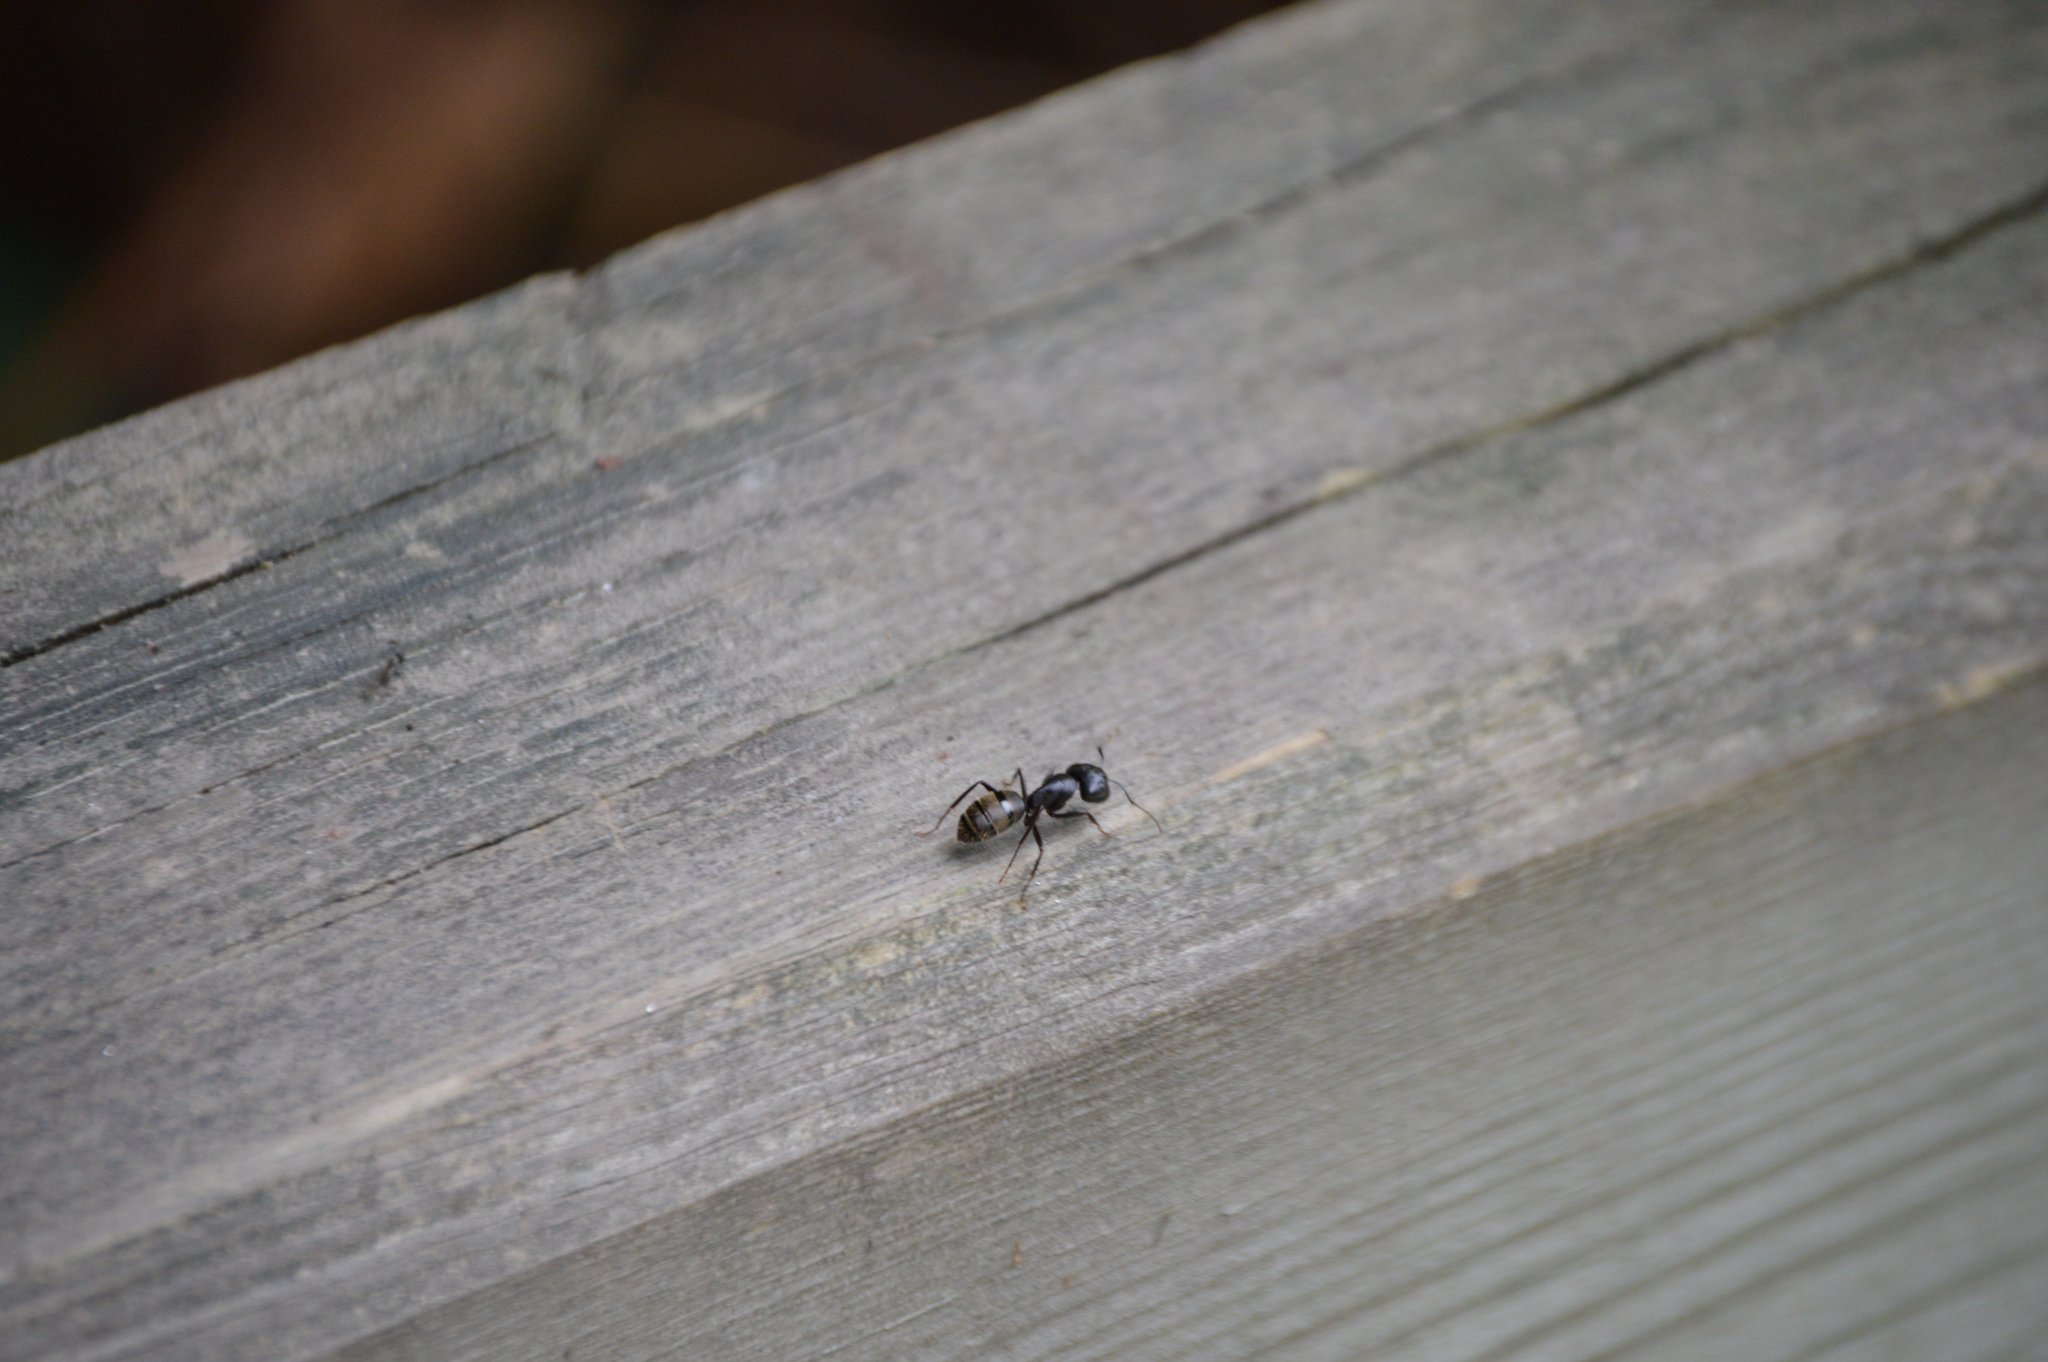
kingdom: Animalia
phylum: Arthropoda
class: Insecta
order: Hymenoptera
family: Formicidae
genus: Camponotus
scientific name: Camponotus pennsylvanicus
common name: Black carpenter ant
